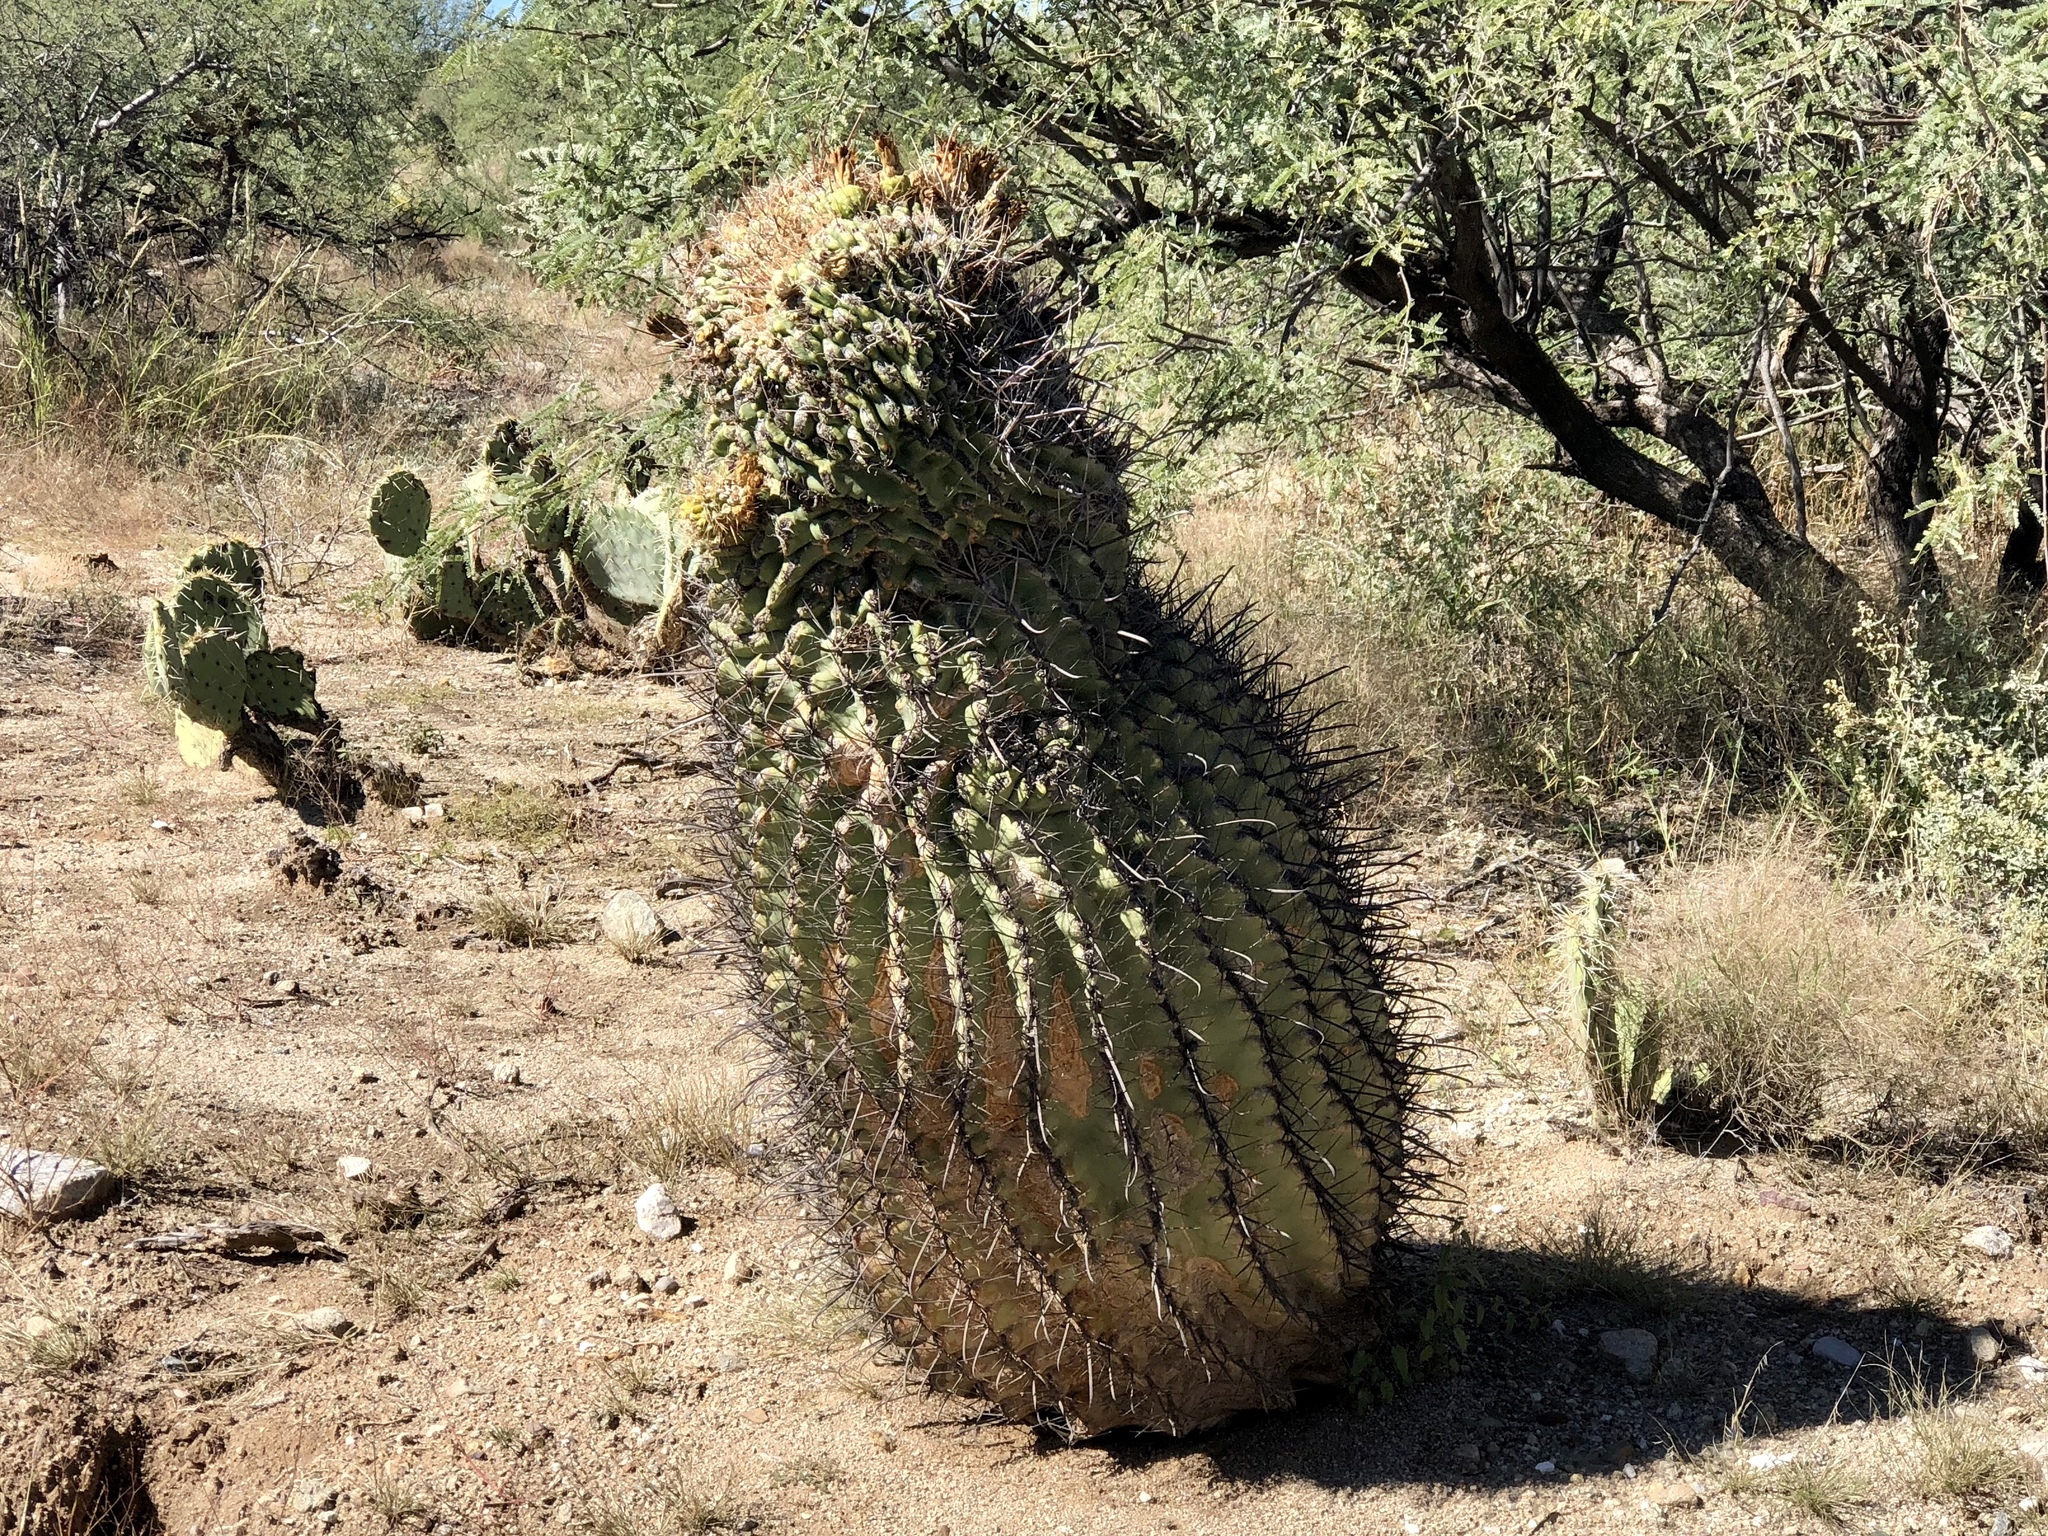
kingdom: Plantae
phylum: Tracheophyta
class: Magnoliopsida
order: Caryophyllales
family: Cactaceae
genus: Ferocactus
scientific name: Ferocactus wislizeni
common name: Candy barrel cactus
